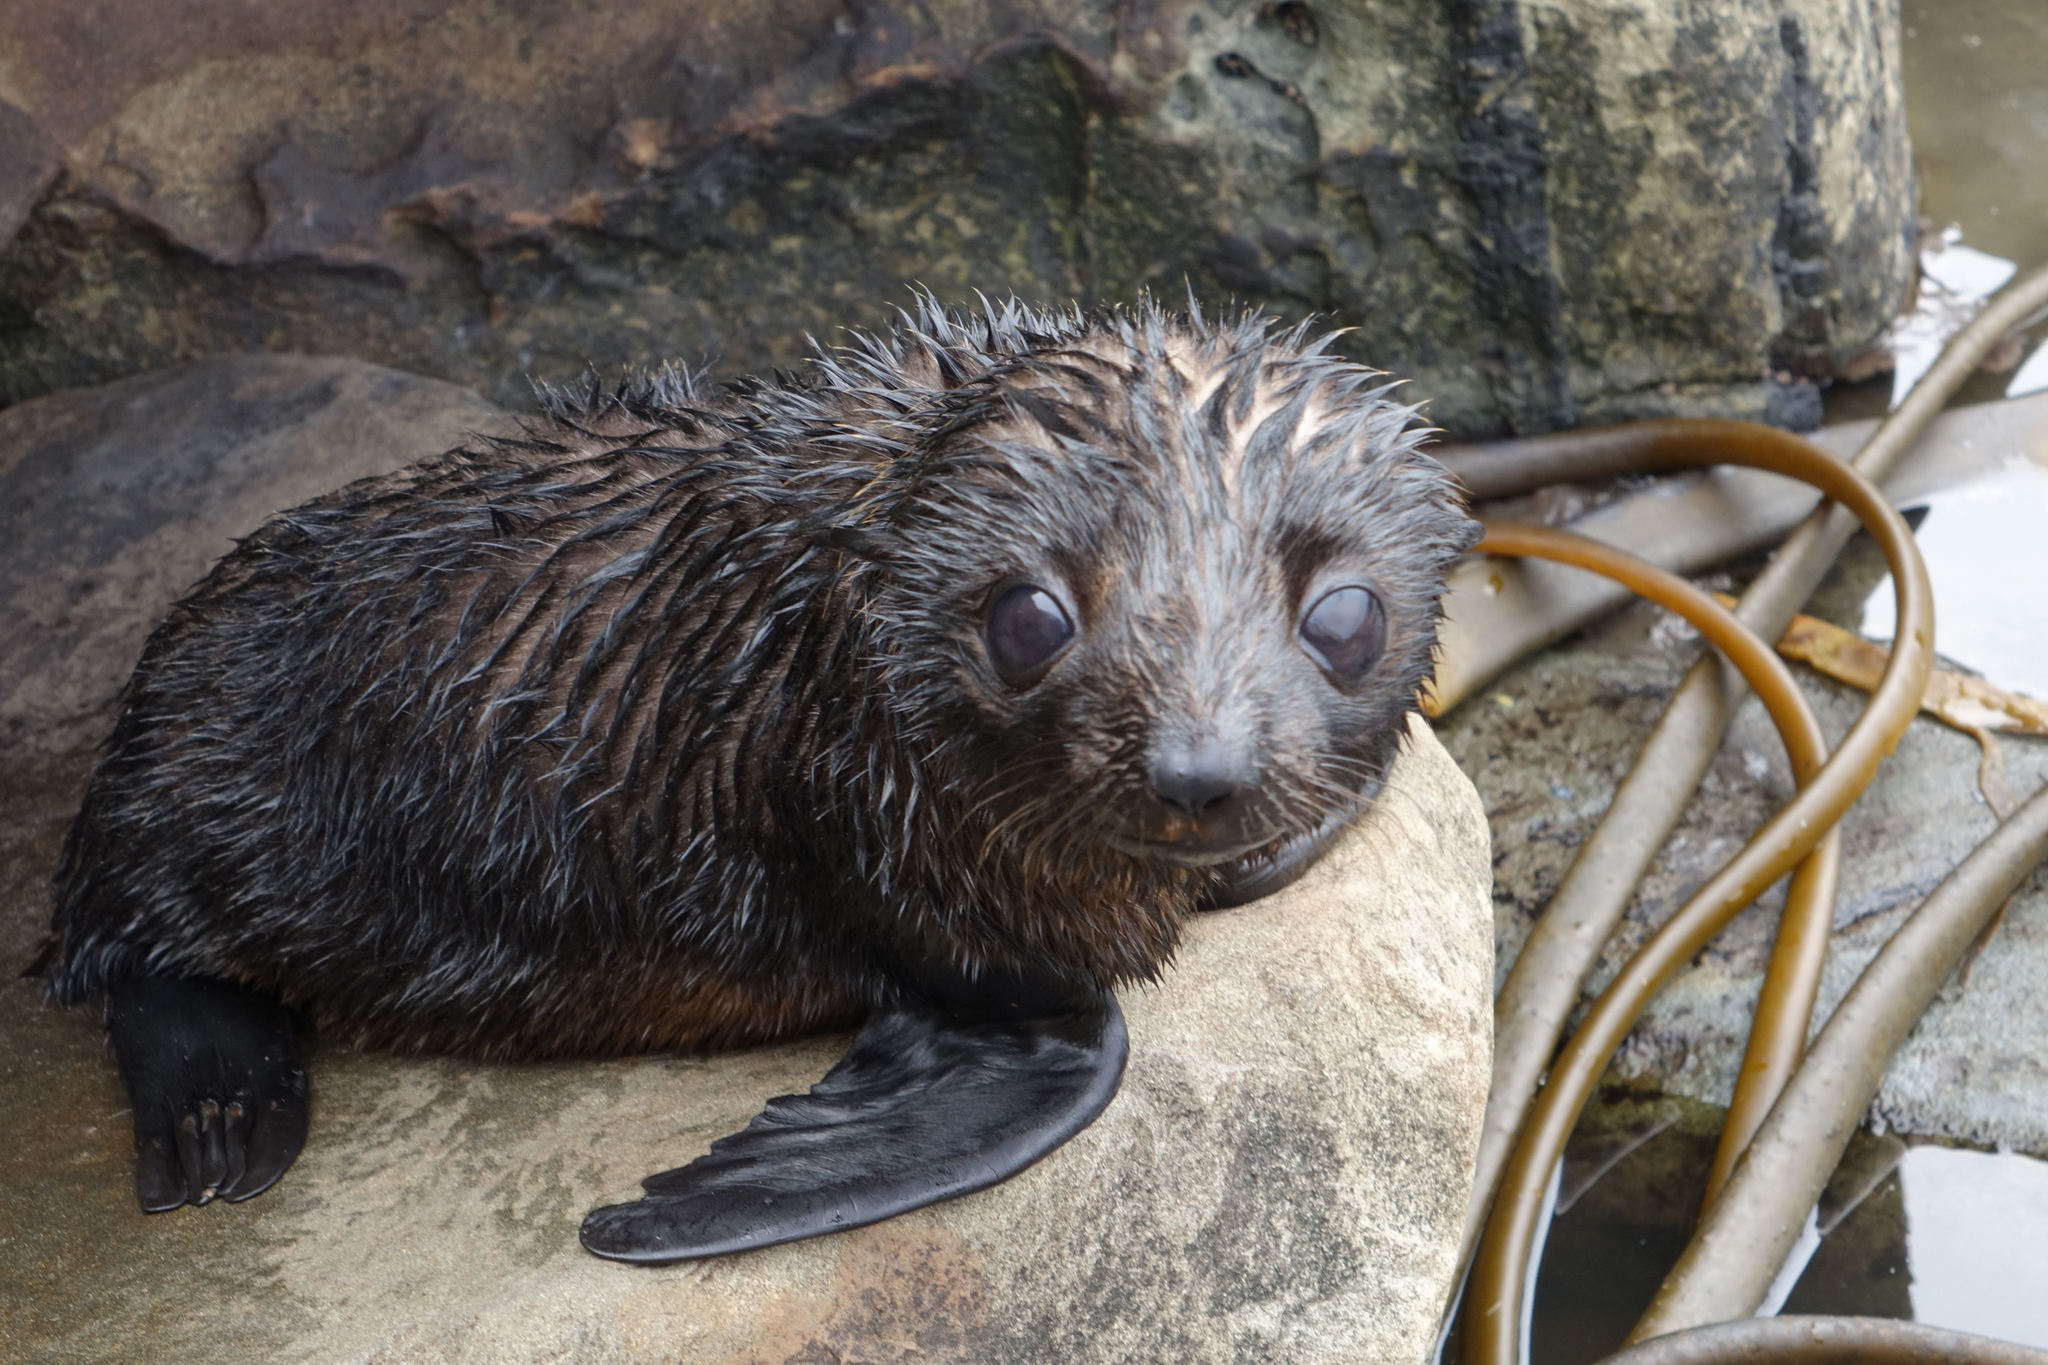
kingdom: Animalia
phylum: Chordata
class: Mammalia
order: Carnivora
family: Otariidae
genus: Arctocephalus
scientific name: Arctocephalus forsteri
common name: New zealand fur seal
